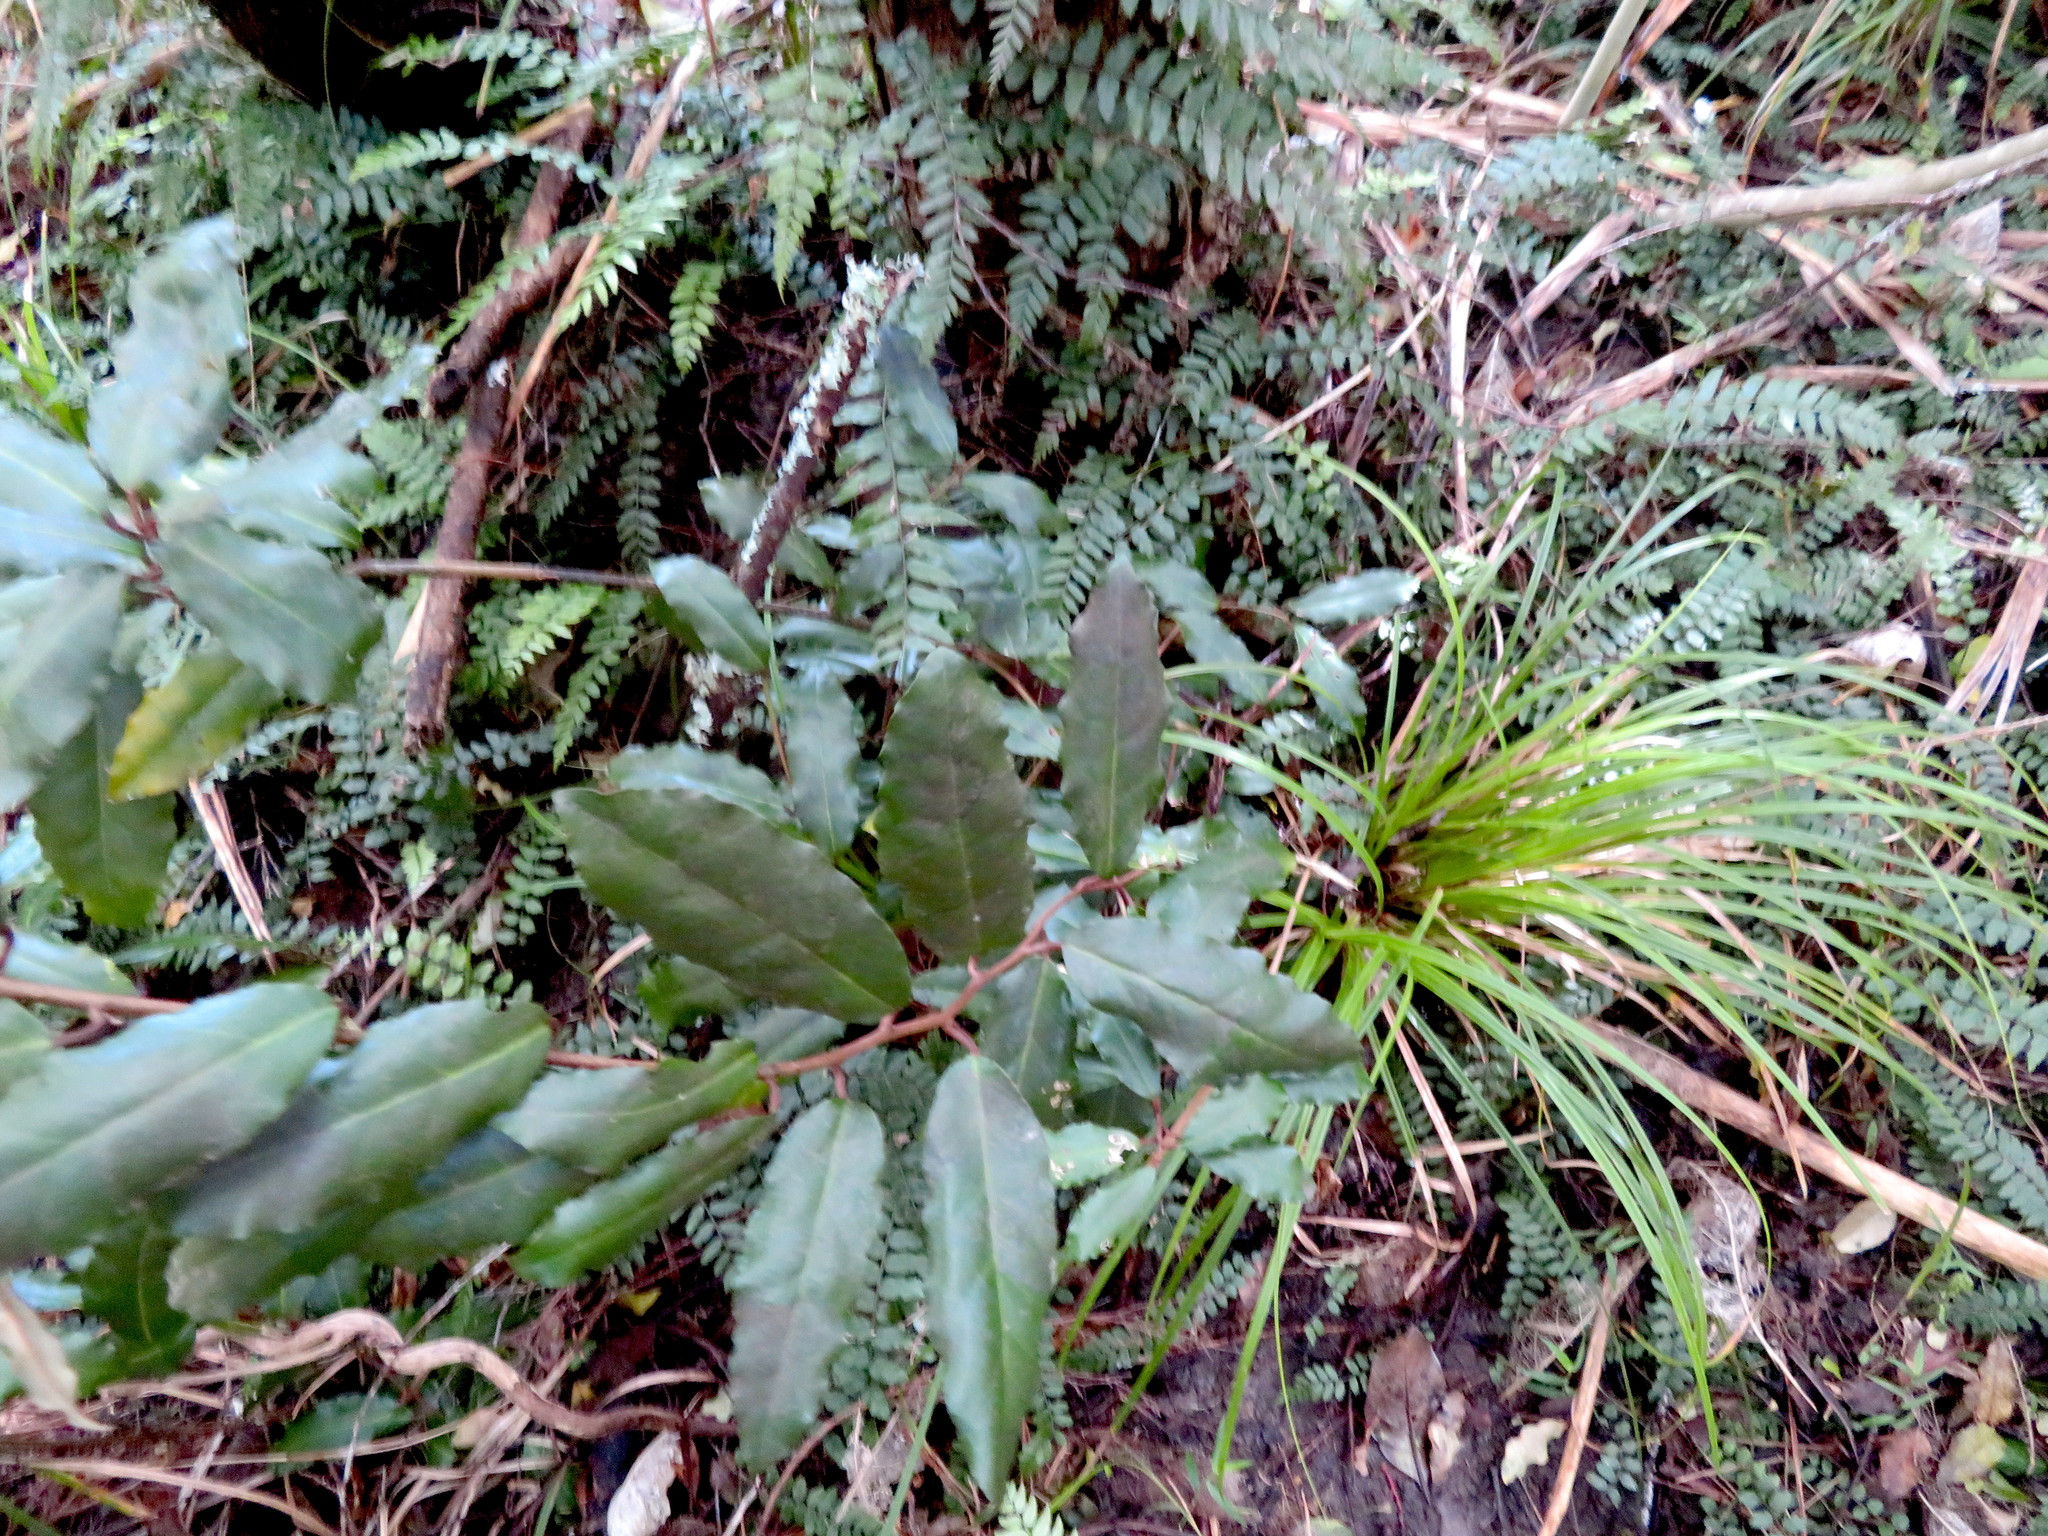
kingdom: Plantae
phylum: Tracheophyta
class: Polypodiopsida
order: Polypodiales
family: Blechnaceae
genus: Icarus
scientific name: Icarus filiformis
